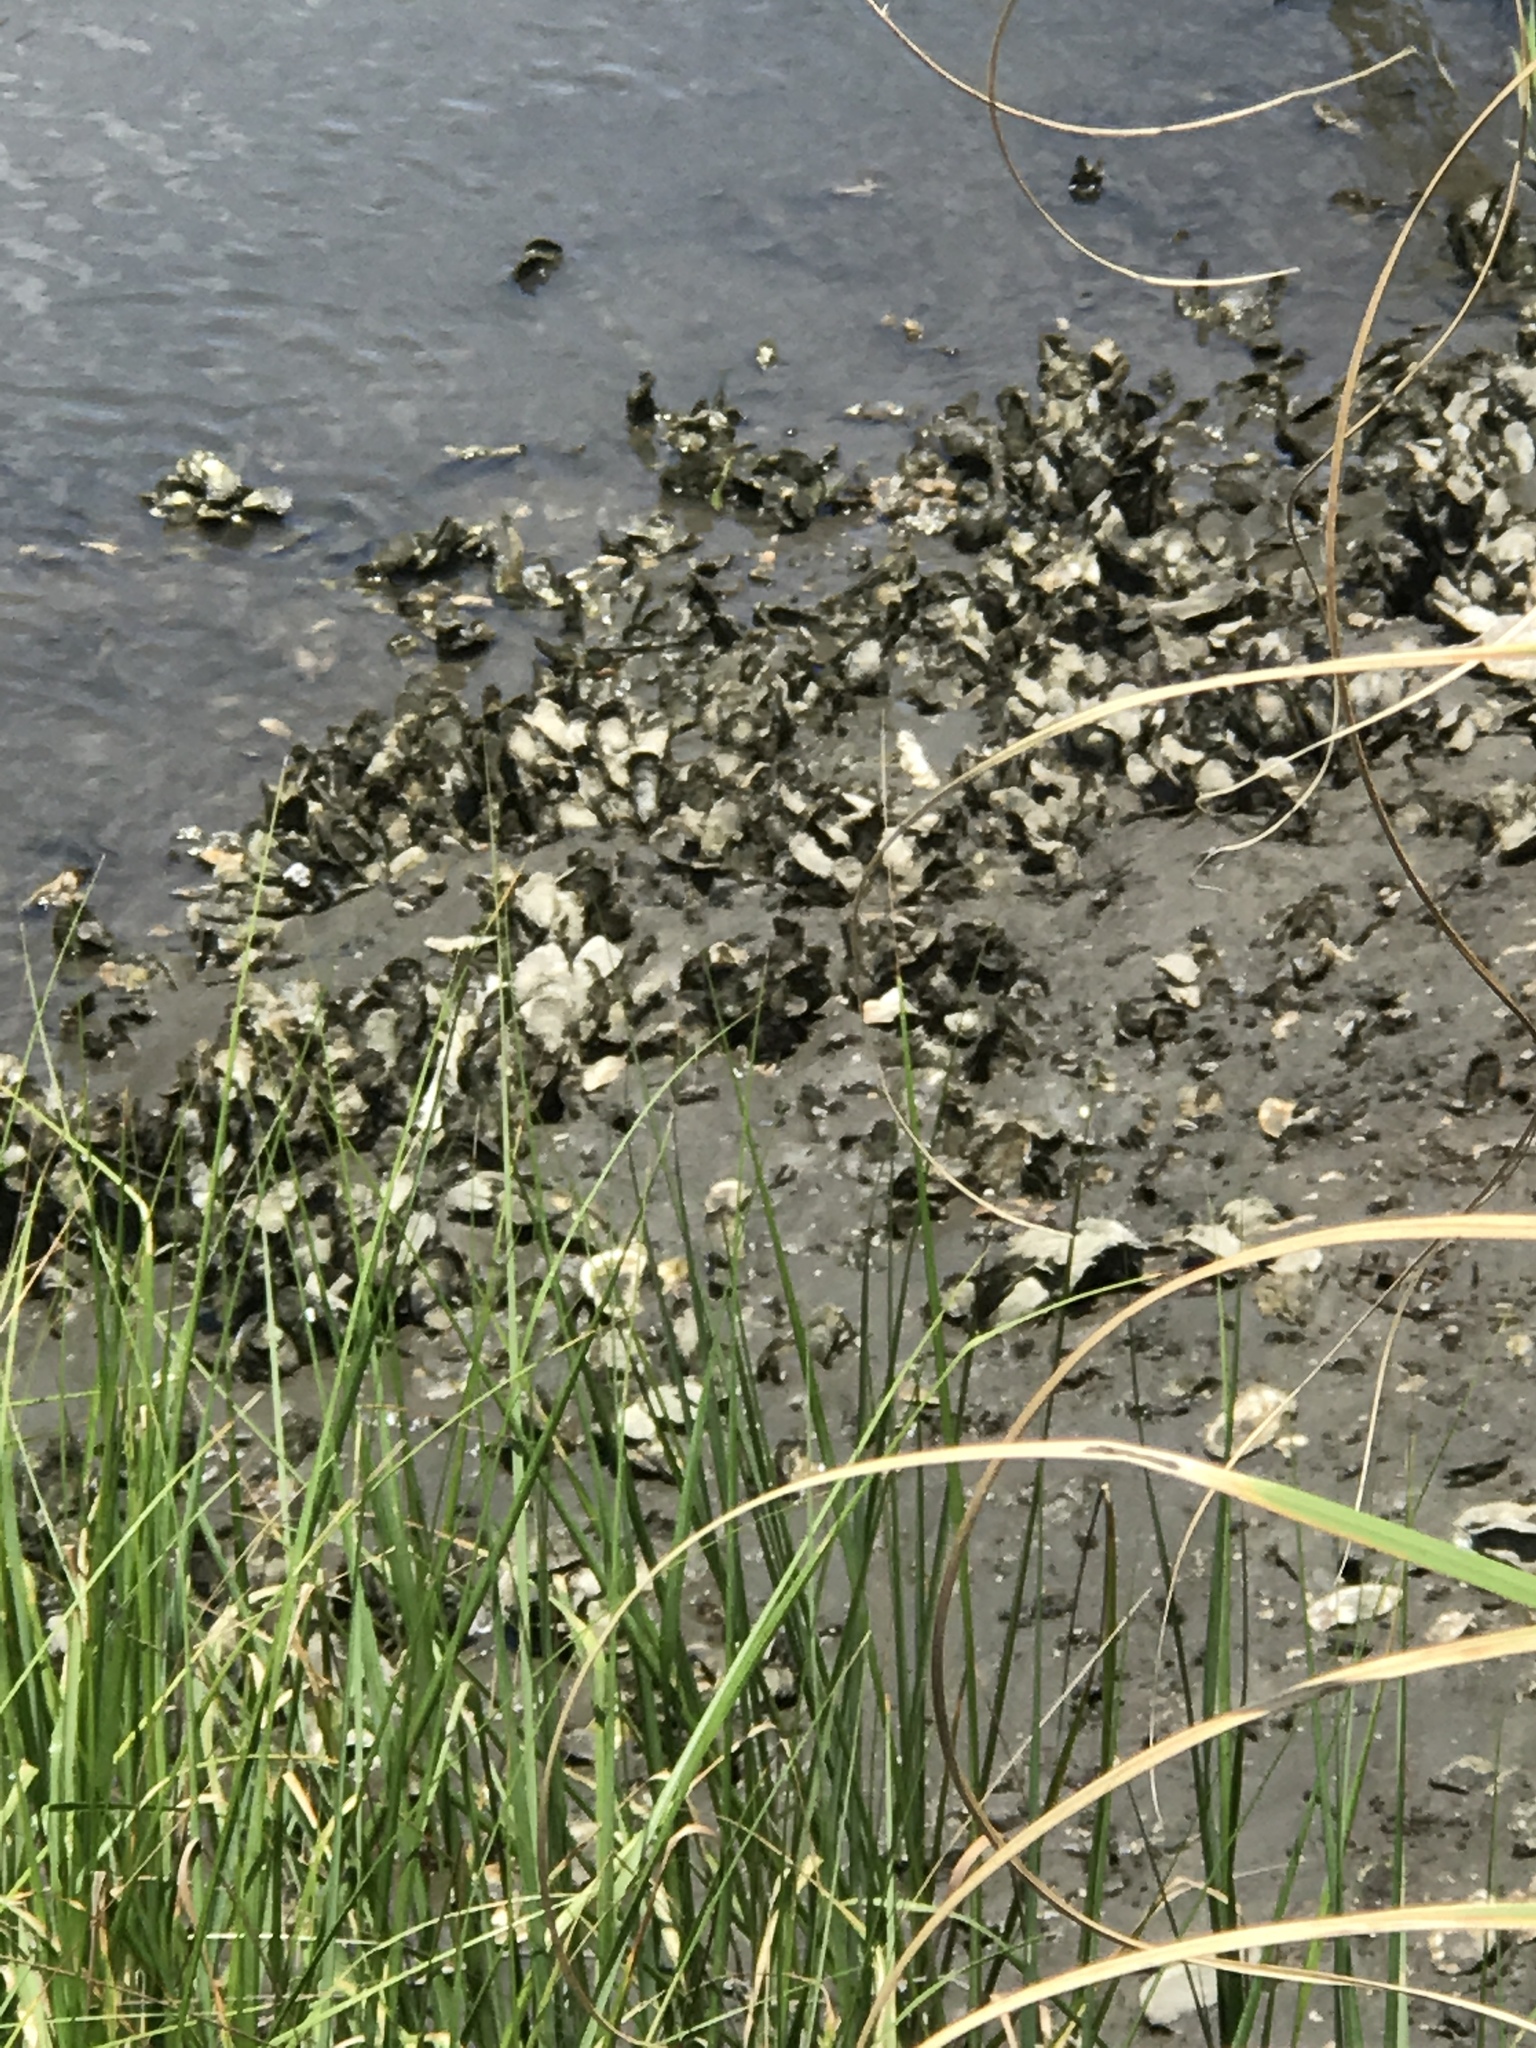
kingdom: Animalia
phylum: Mollusca
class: Bivalvia
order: Ostreida
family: Ostreidae
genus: Crassostrea
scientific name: Crassostrea virginica
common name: American oyster
